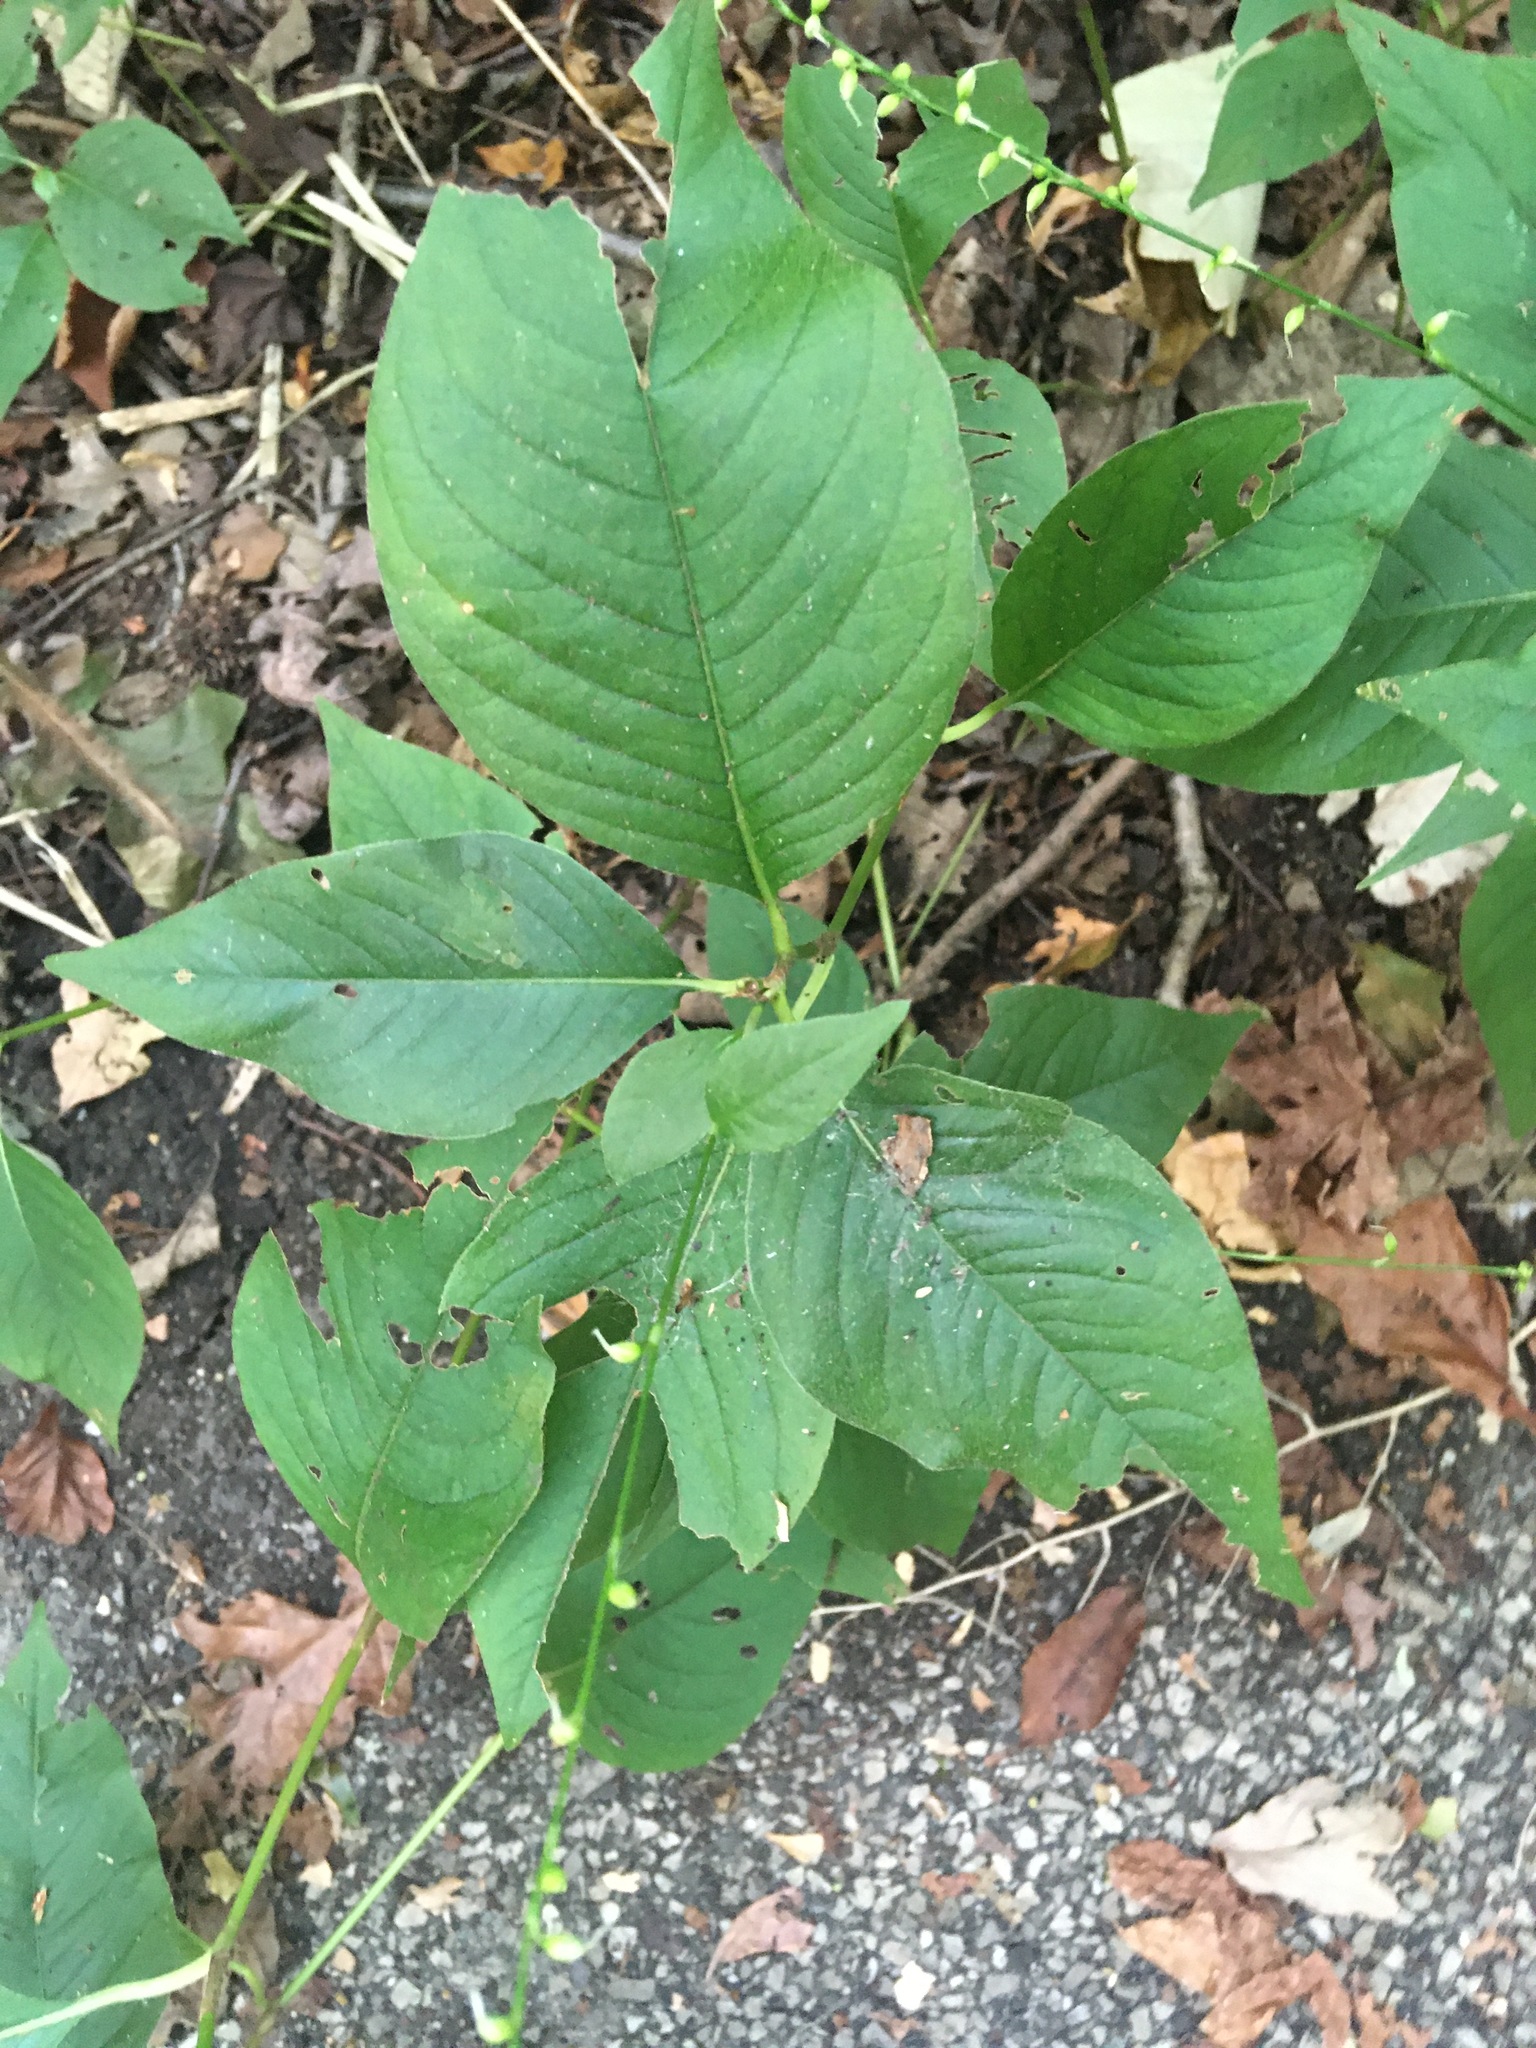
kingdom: Plantae
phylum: Tracheophyta
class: Magnoliopsida
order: Caryophyllales
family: Polygonaceae
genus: Persicaria
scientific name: Persicaria virginiana
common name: Jumpseed
